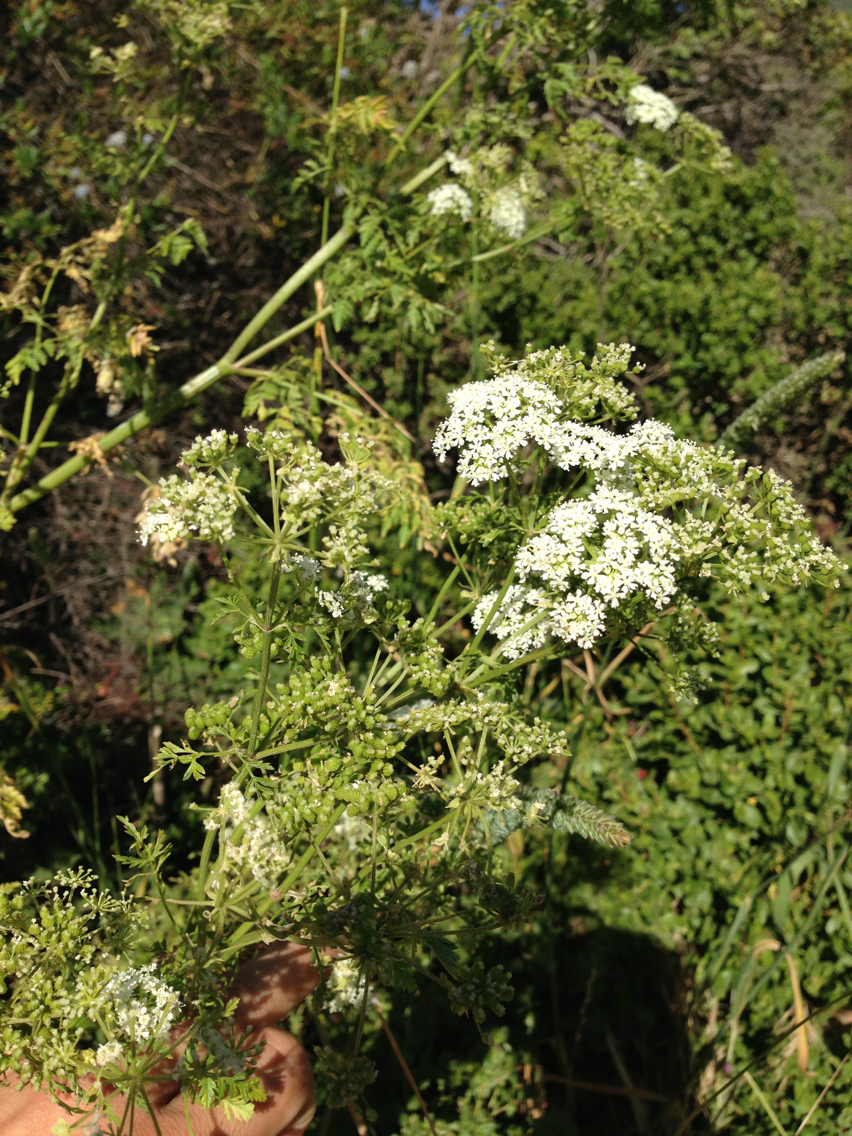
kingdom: Plantae
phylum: Tracheophyta
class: Magnoliopsida
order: Apiales
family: Apiaceae
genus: Conium
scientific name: Conium maculatum
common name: Hemlock
